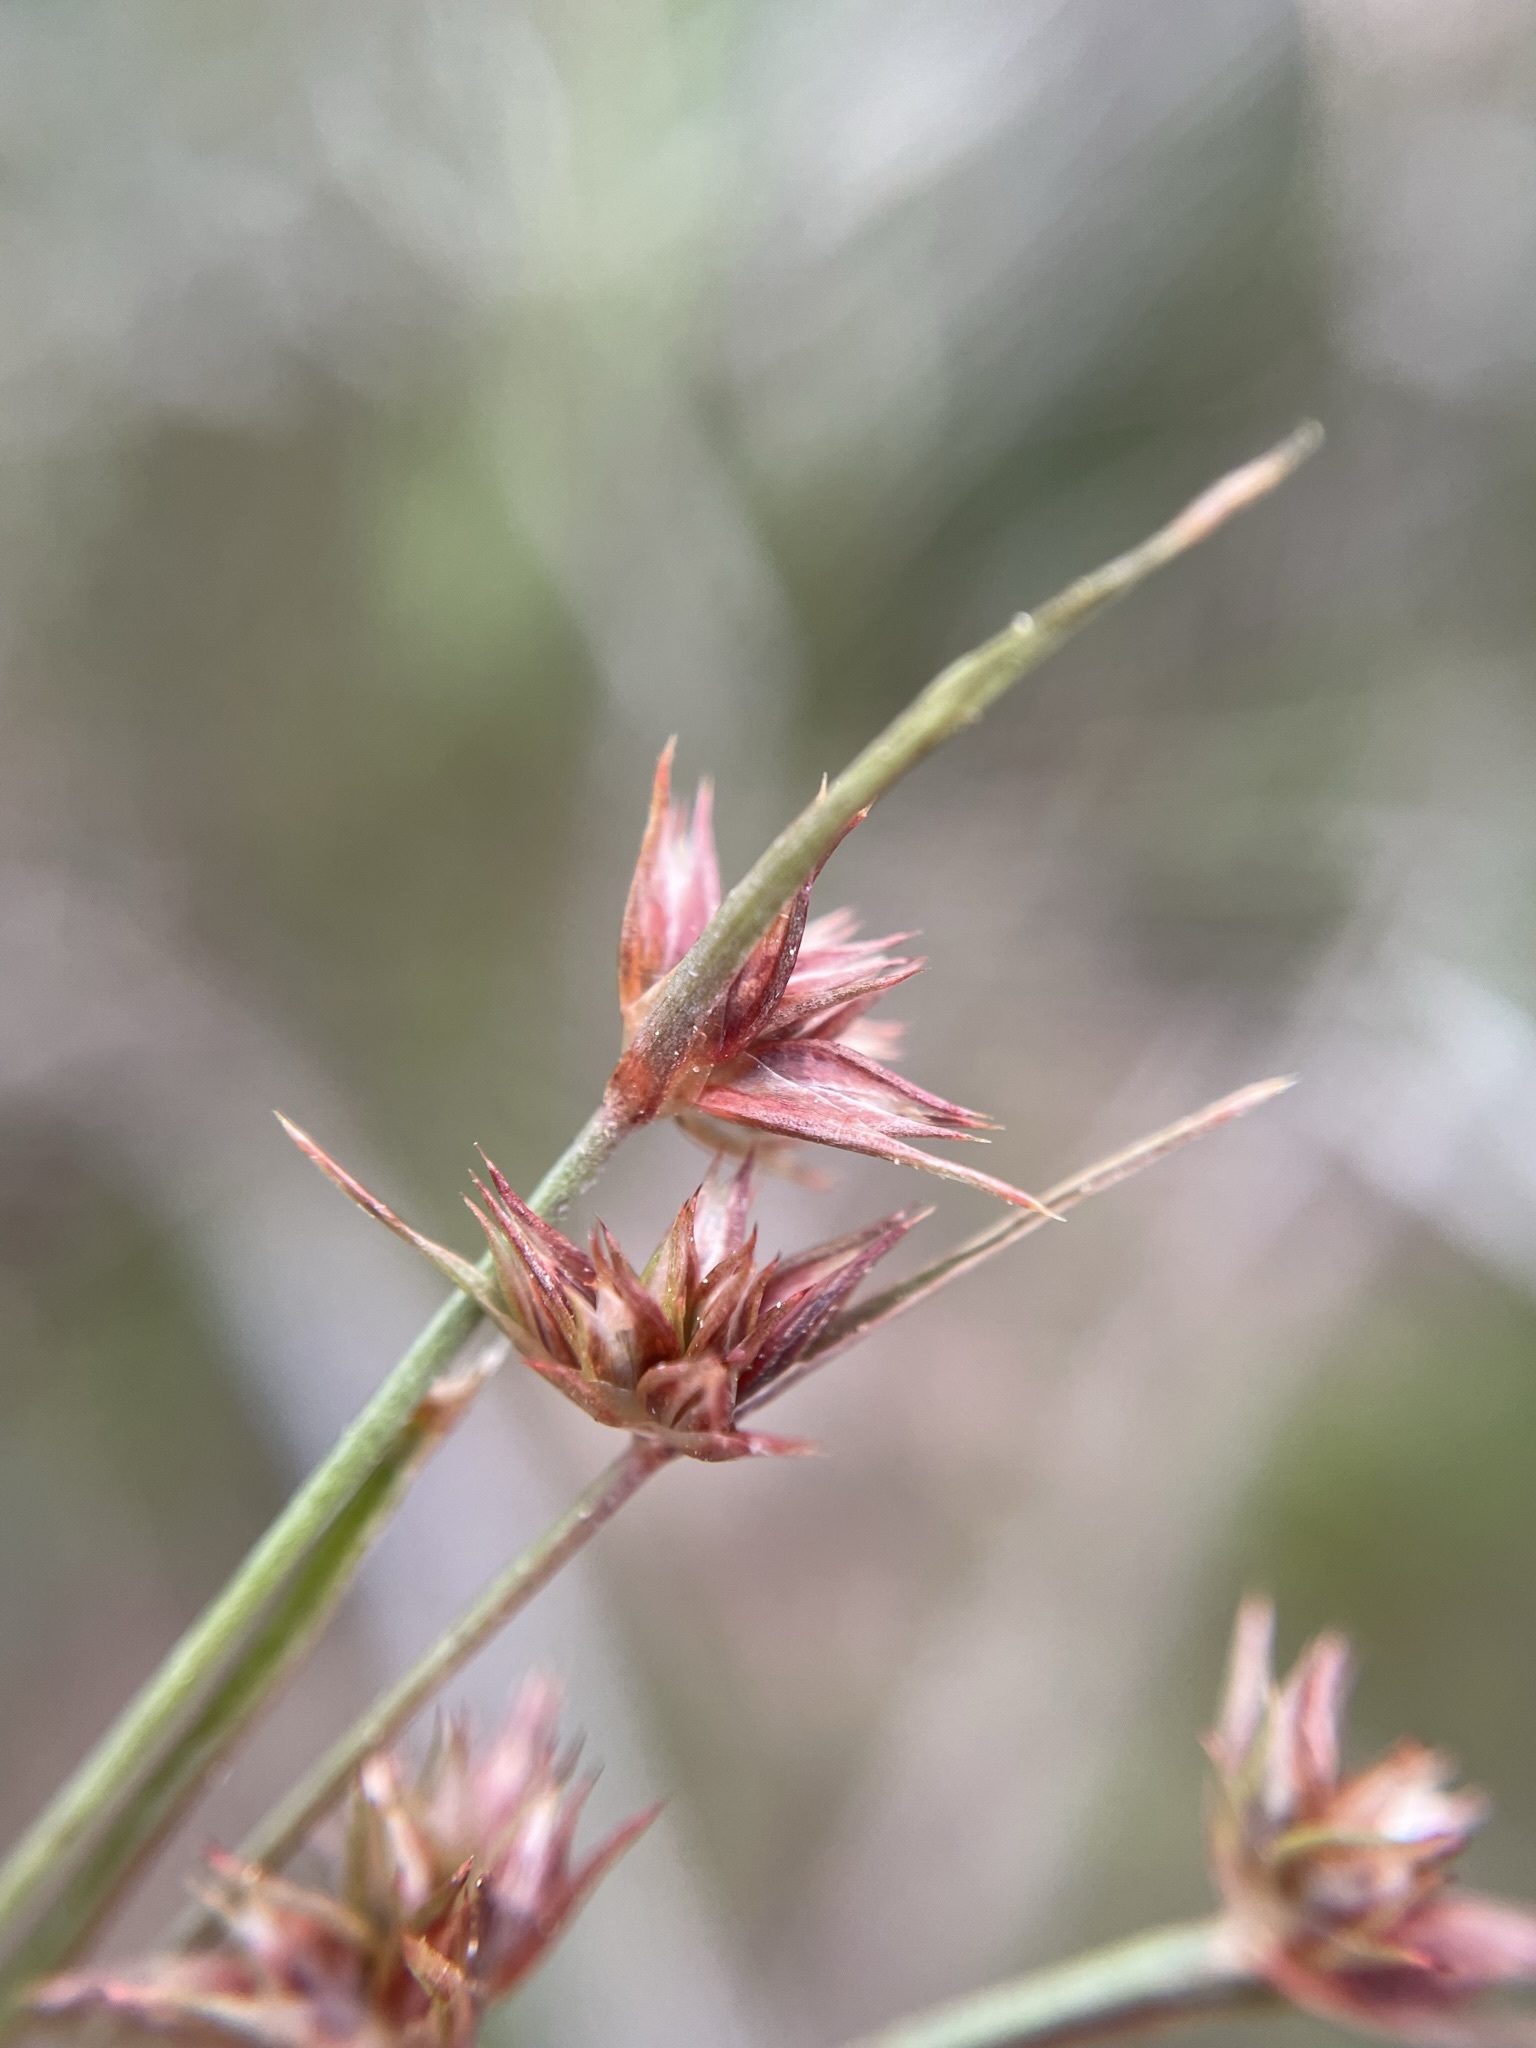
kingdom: Plantae
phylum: Tracheophyta
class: Liliopsida
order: Poales
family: Juncaceae
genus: Juncus
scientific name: Juncus capitatus
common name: Dwarf rush
